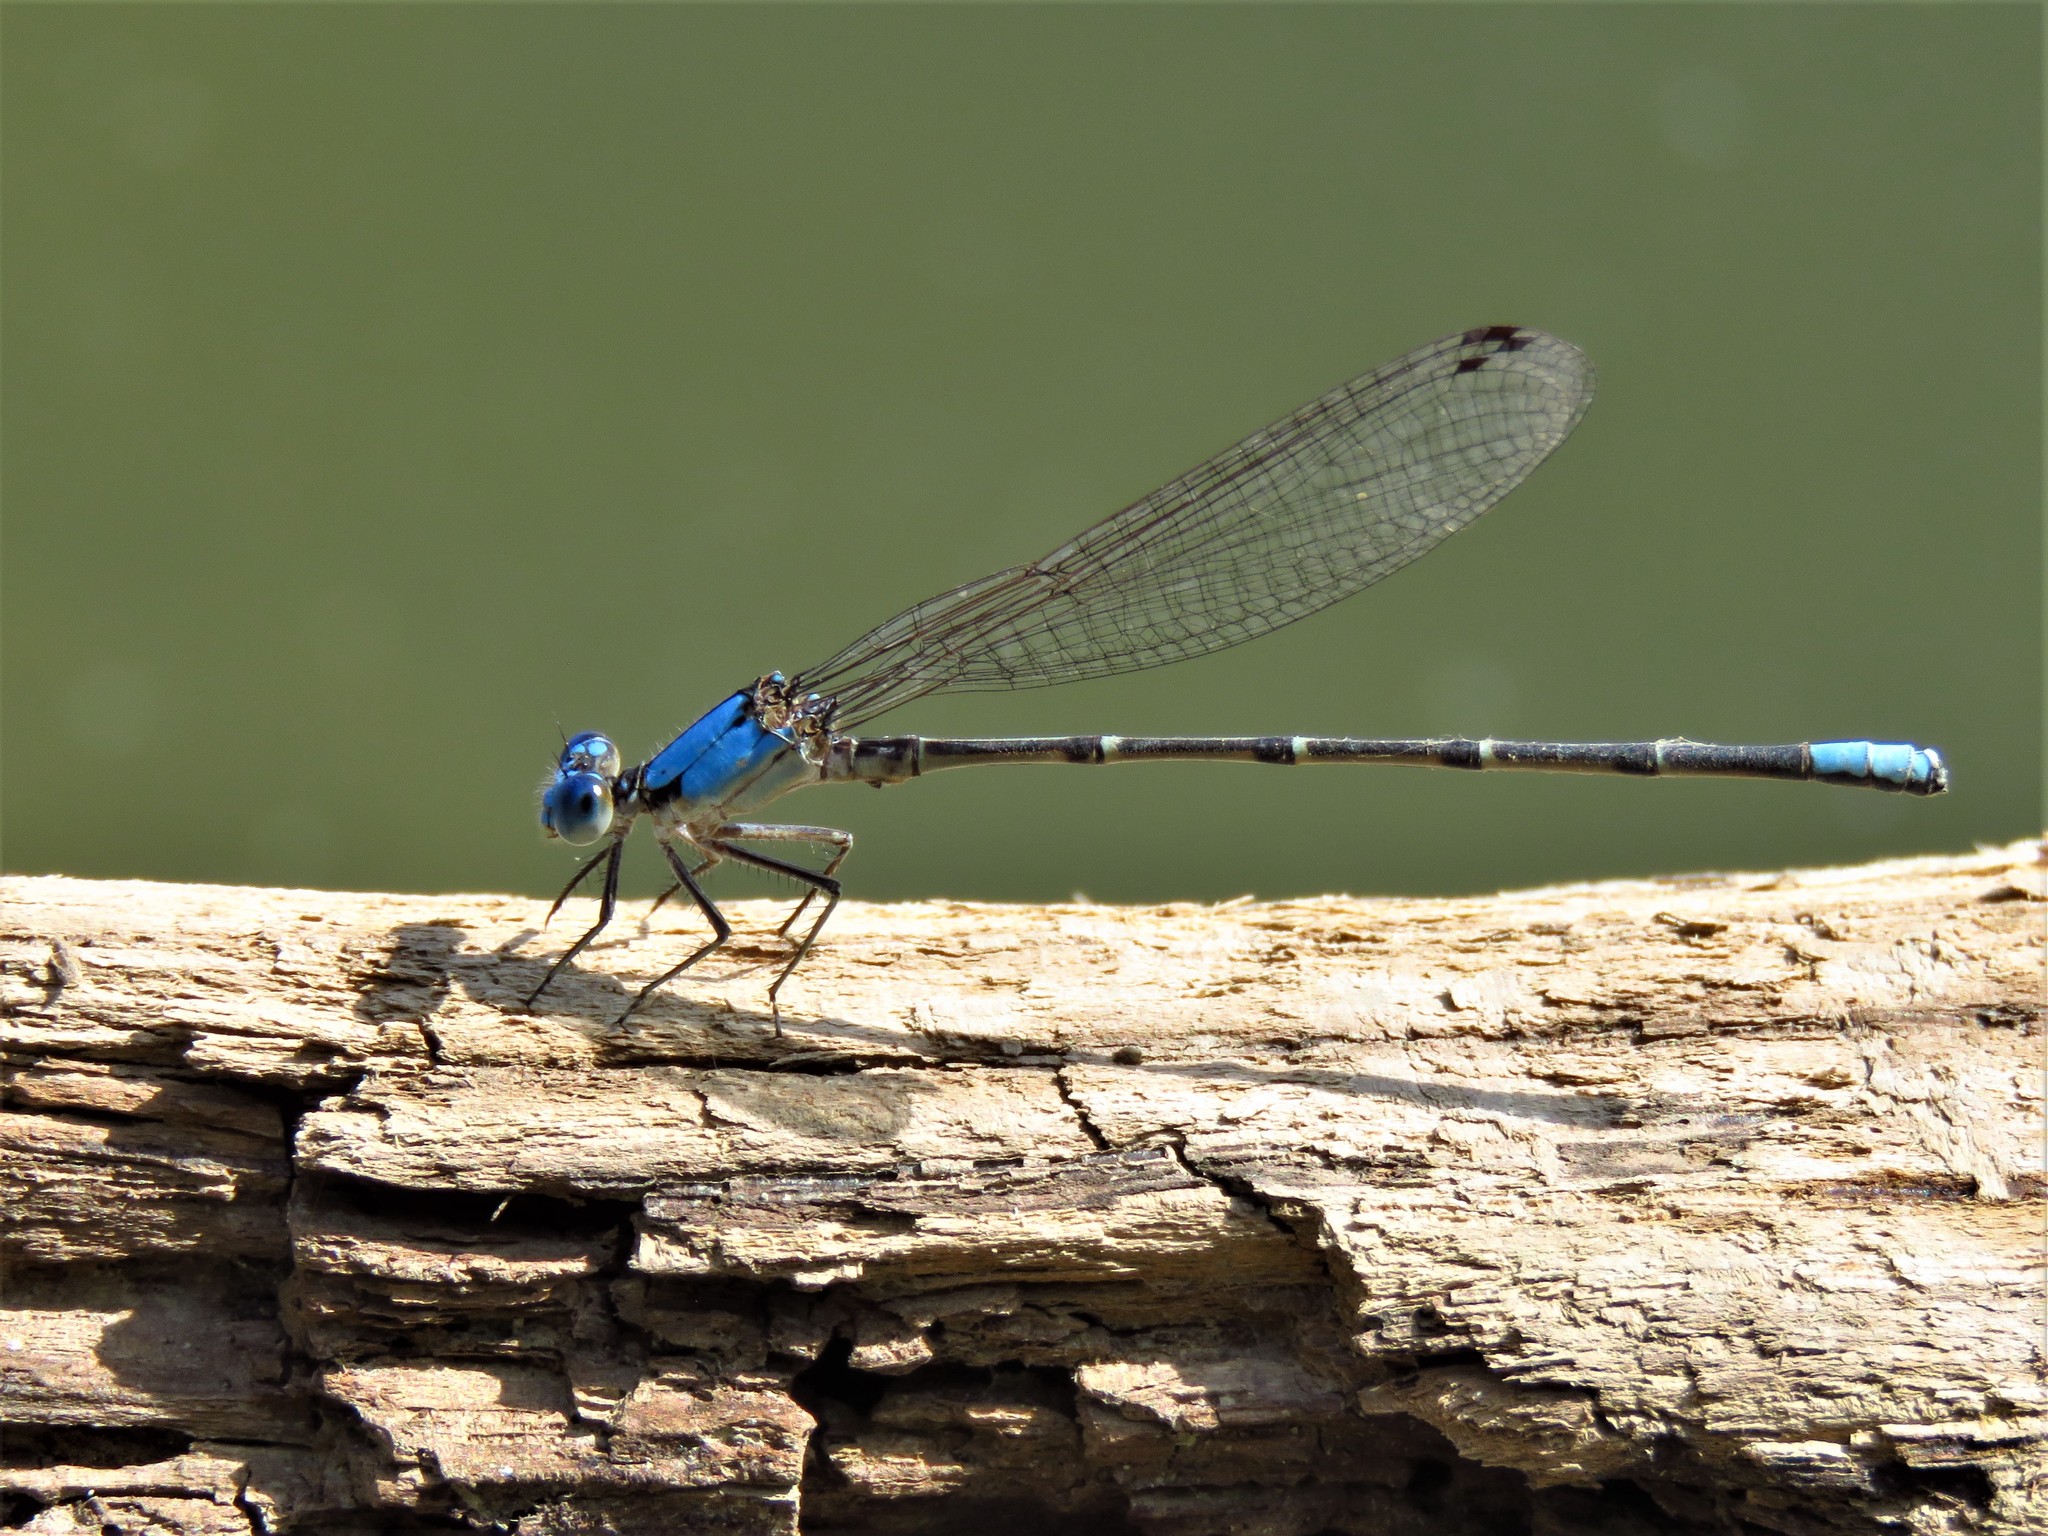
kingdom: Animalia
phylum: Arthropoda
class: Insecta
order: Odonata
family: Coenagrionidae
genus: Argia
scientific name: Argia apicalis
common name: Blue-fronted dancer
